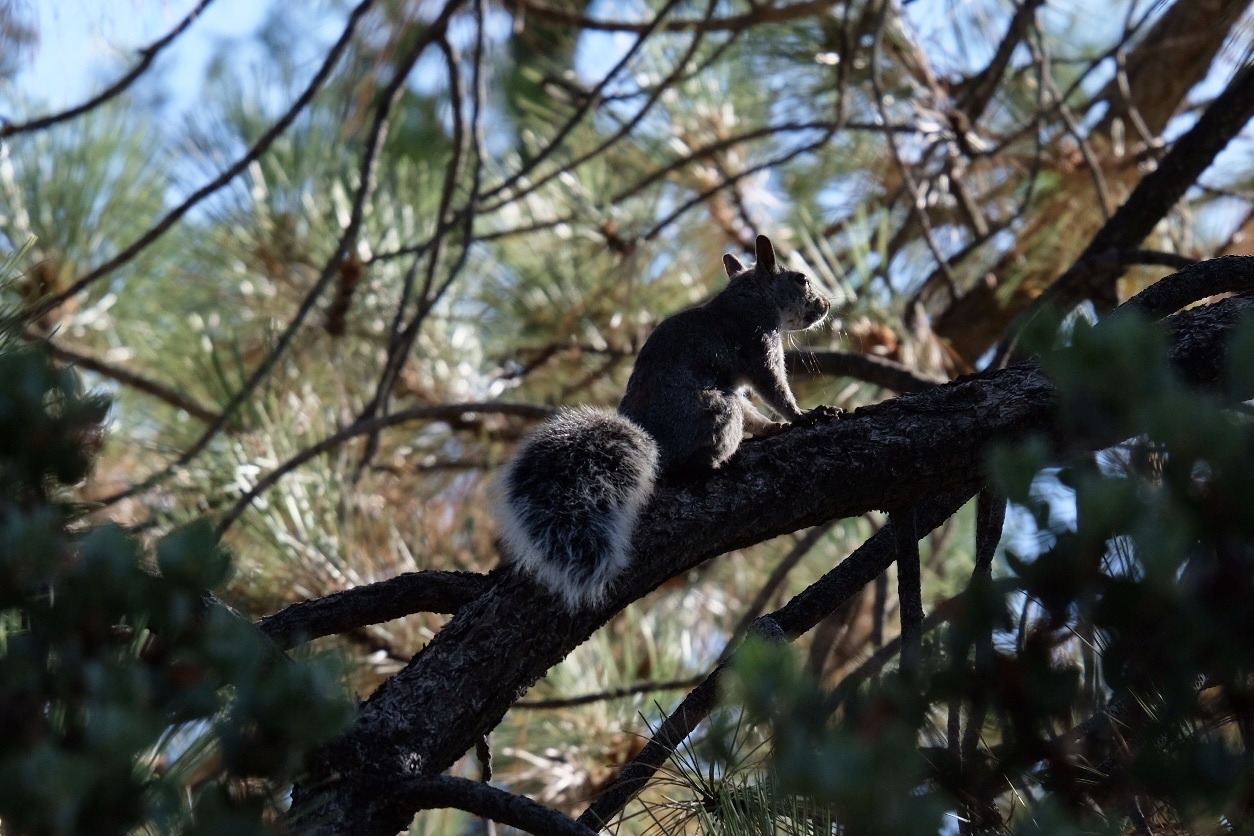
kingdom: Animalia
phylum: Chordata
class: Mammalia
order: Rodentia
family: Sciuridae
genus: Sciurus
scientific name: Sciurus griseus
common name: Western gray squirrel
